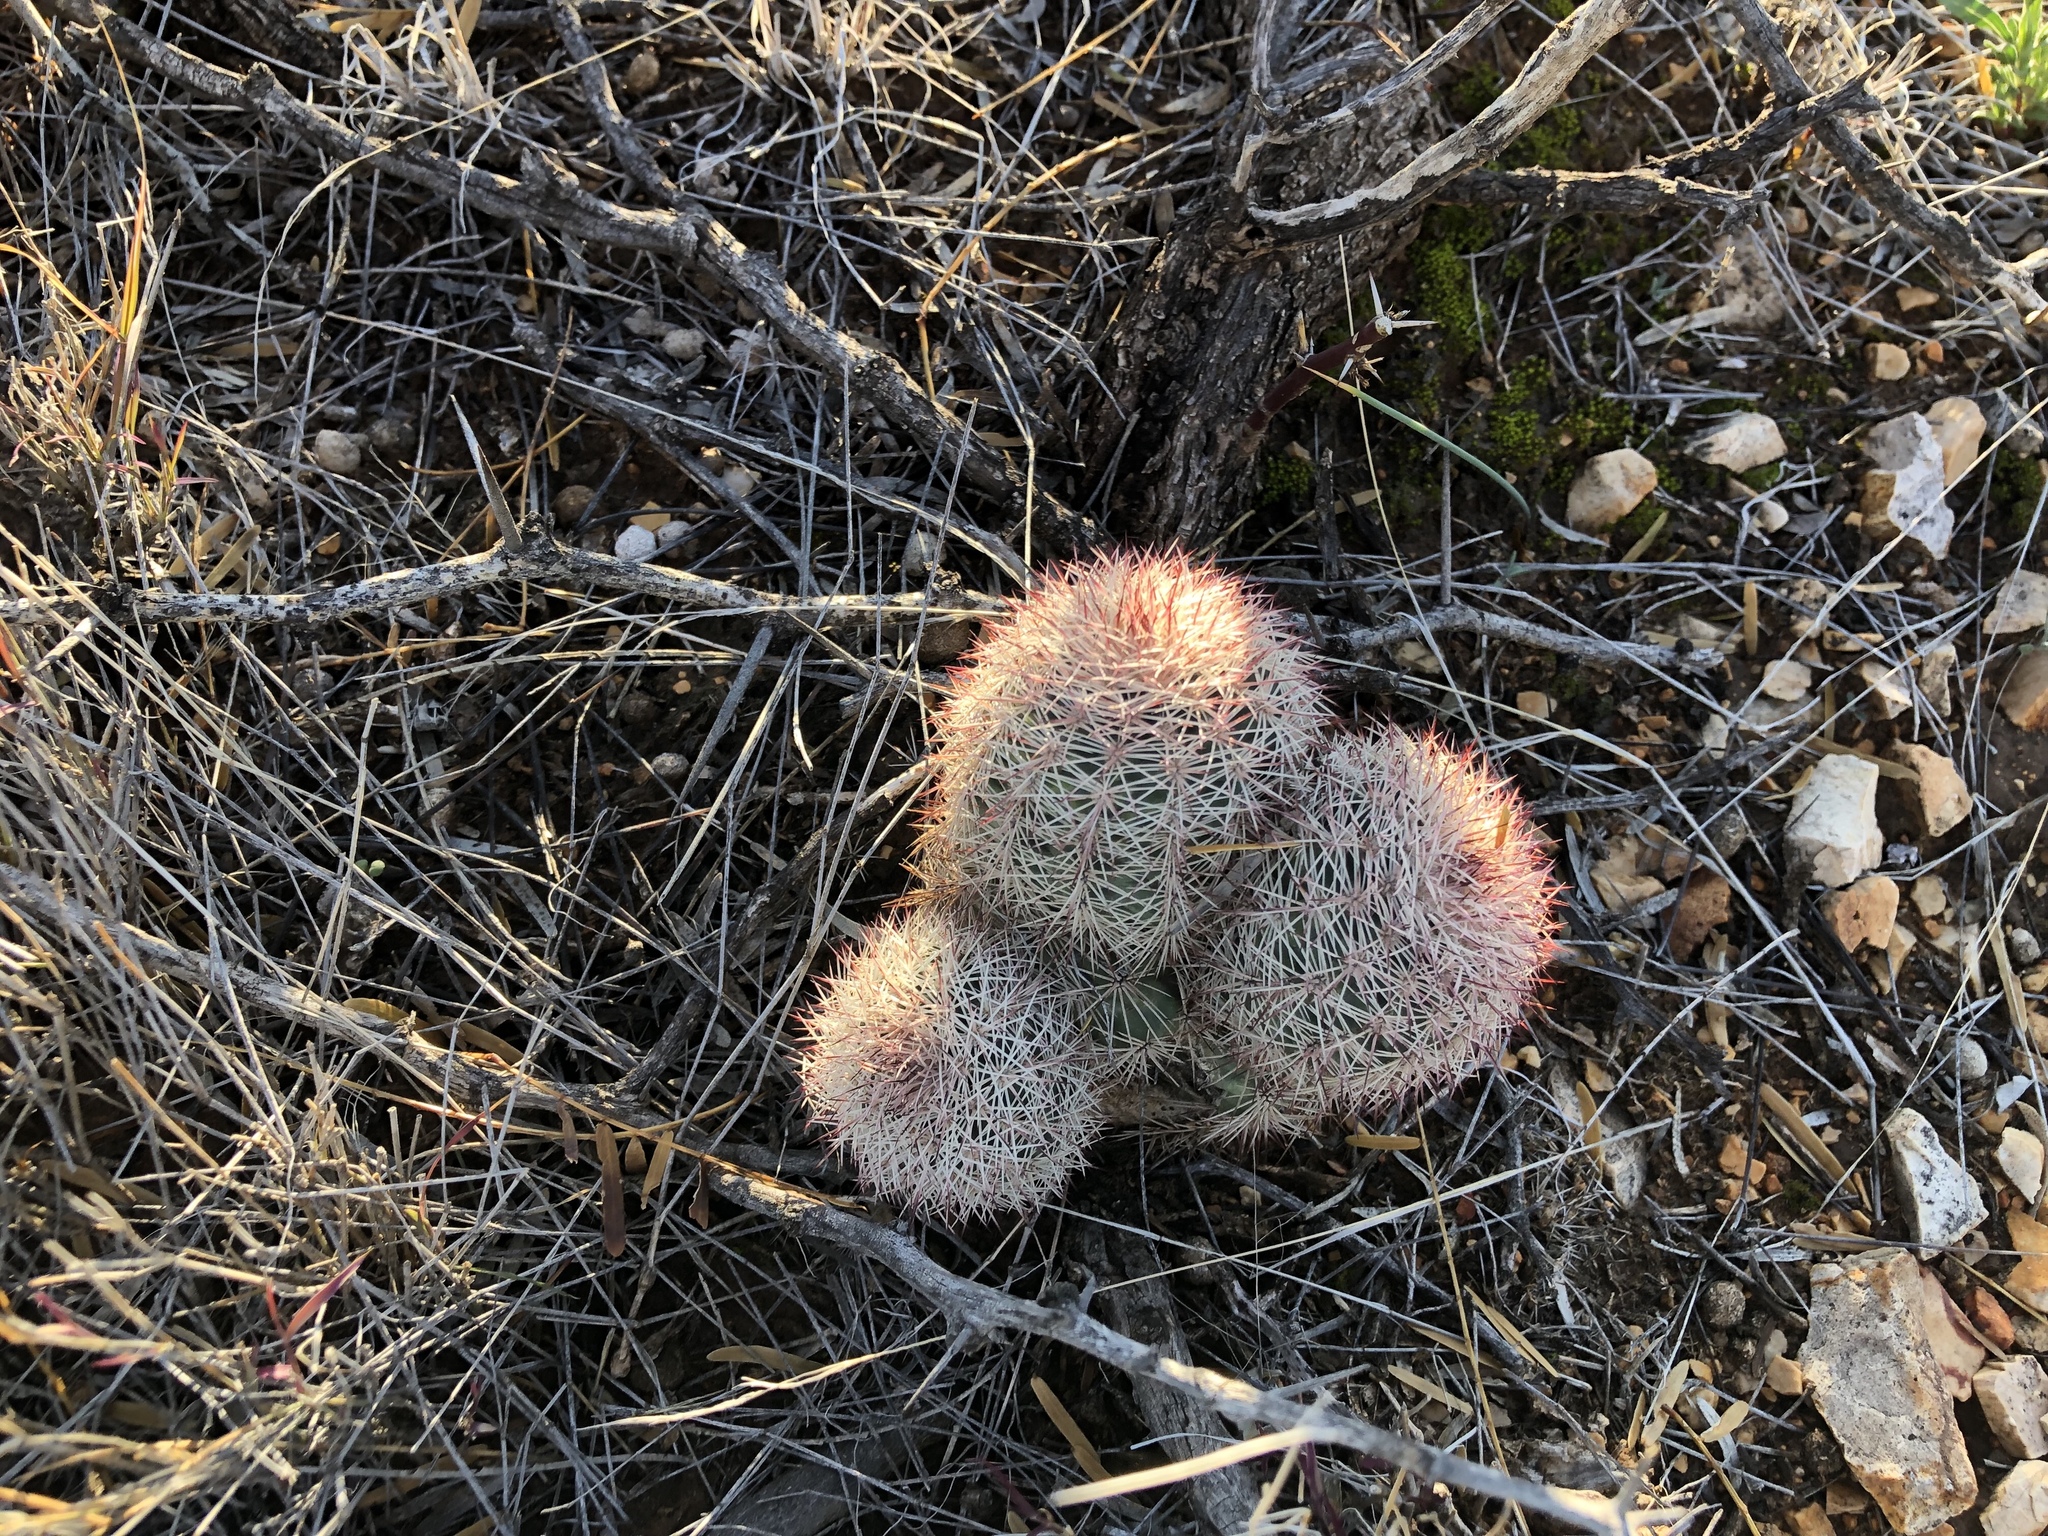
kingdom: Plantae
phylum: Tracheophyta
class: Magnoliopsida
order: Caryophyllales
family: Cactaceae
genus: Echinocereus
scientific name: Echinocereus dasyacanthus
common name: Spiny hedgehog cactus
